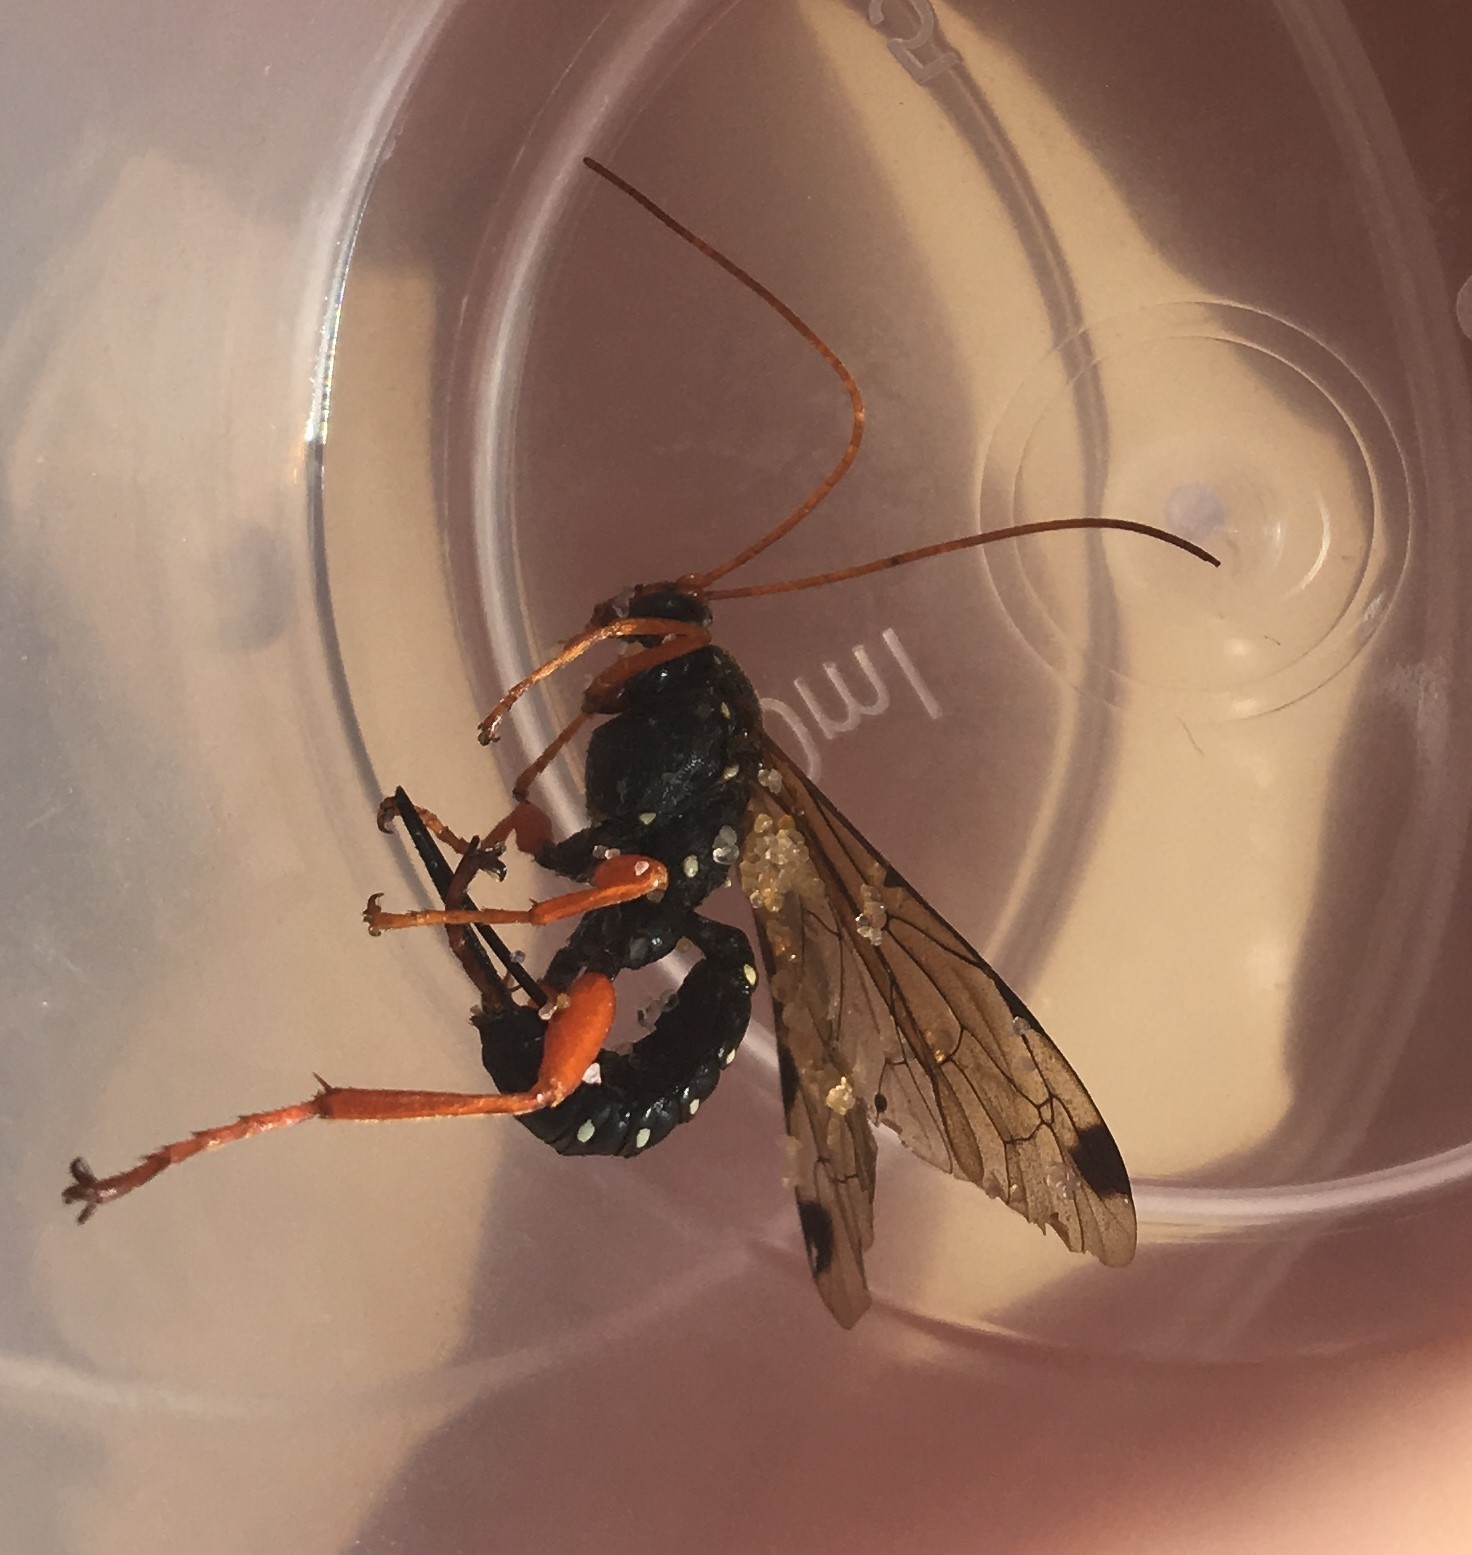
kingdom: Animalia
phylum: Arthropoda
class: Insecta
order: Hymenoptera
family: Ichneumonidae
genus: Echthromorpha
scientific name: Echthromorpha intricatoria
